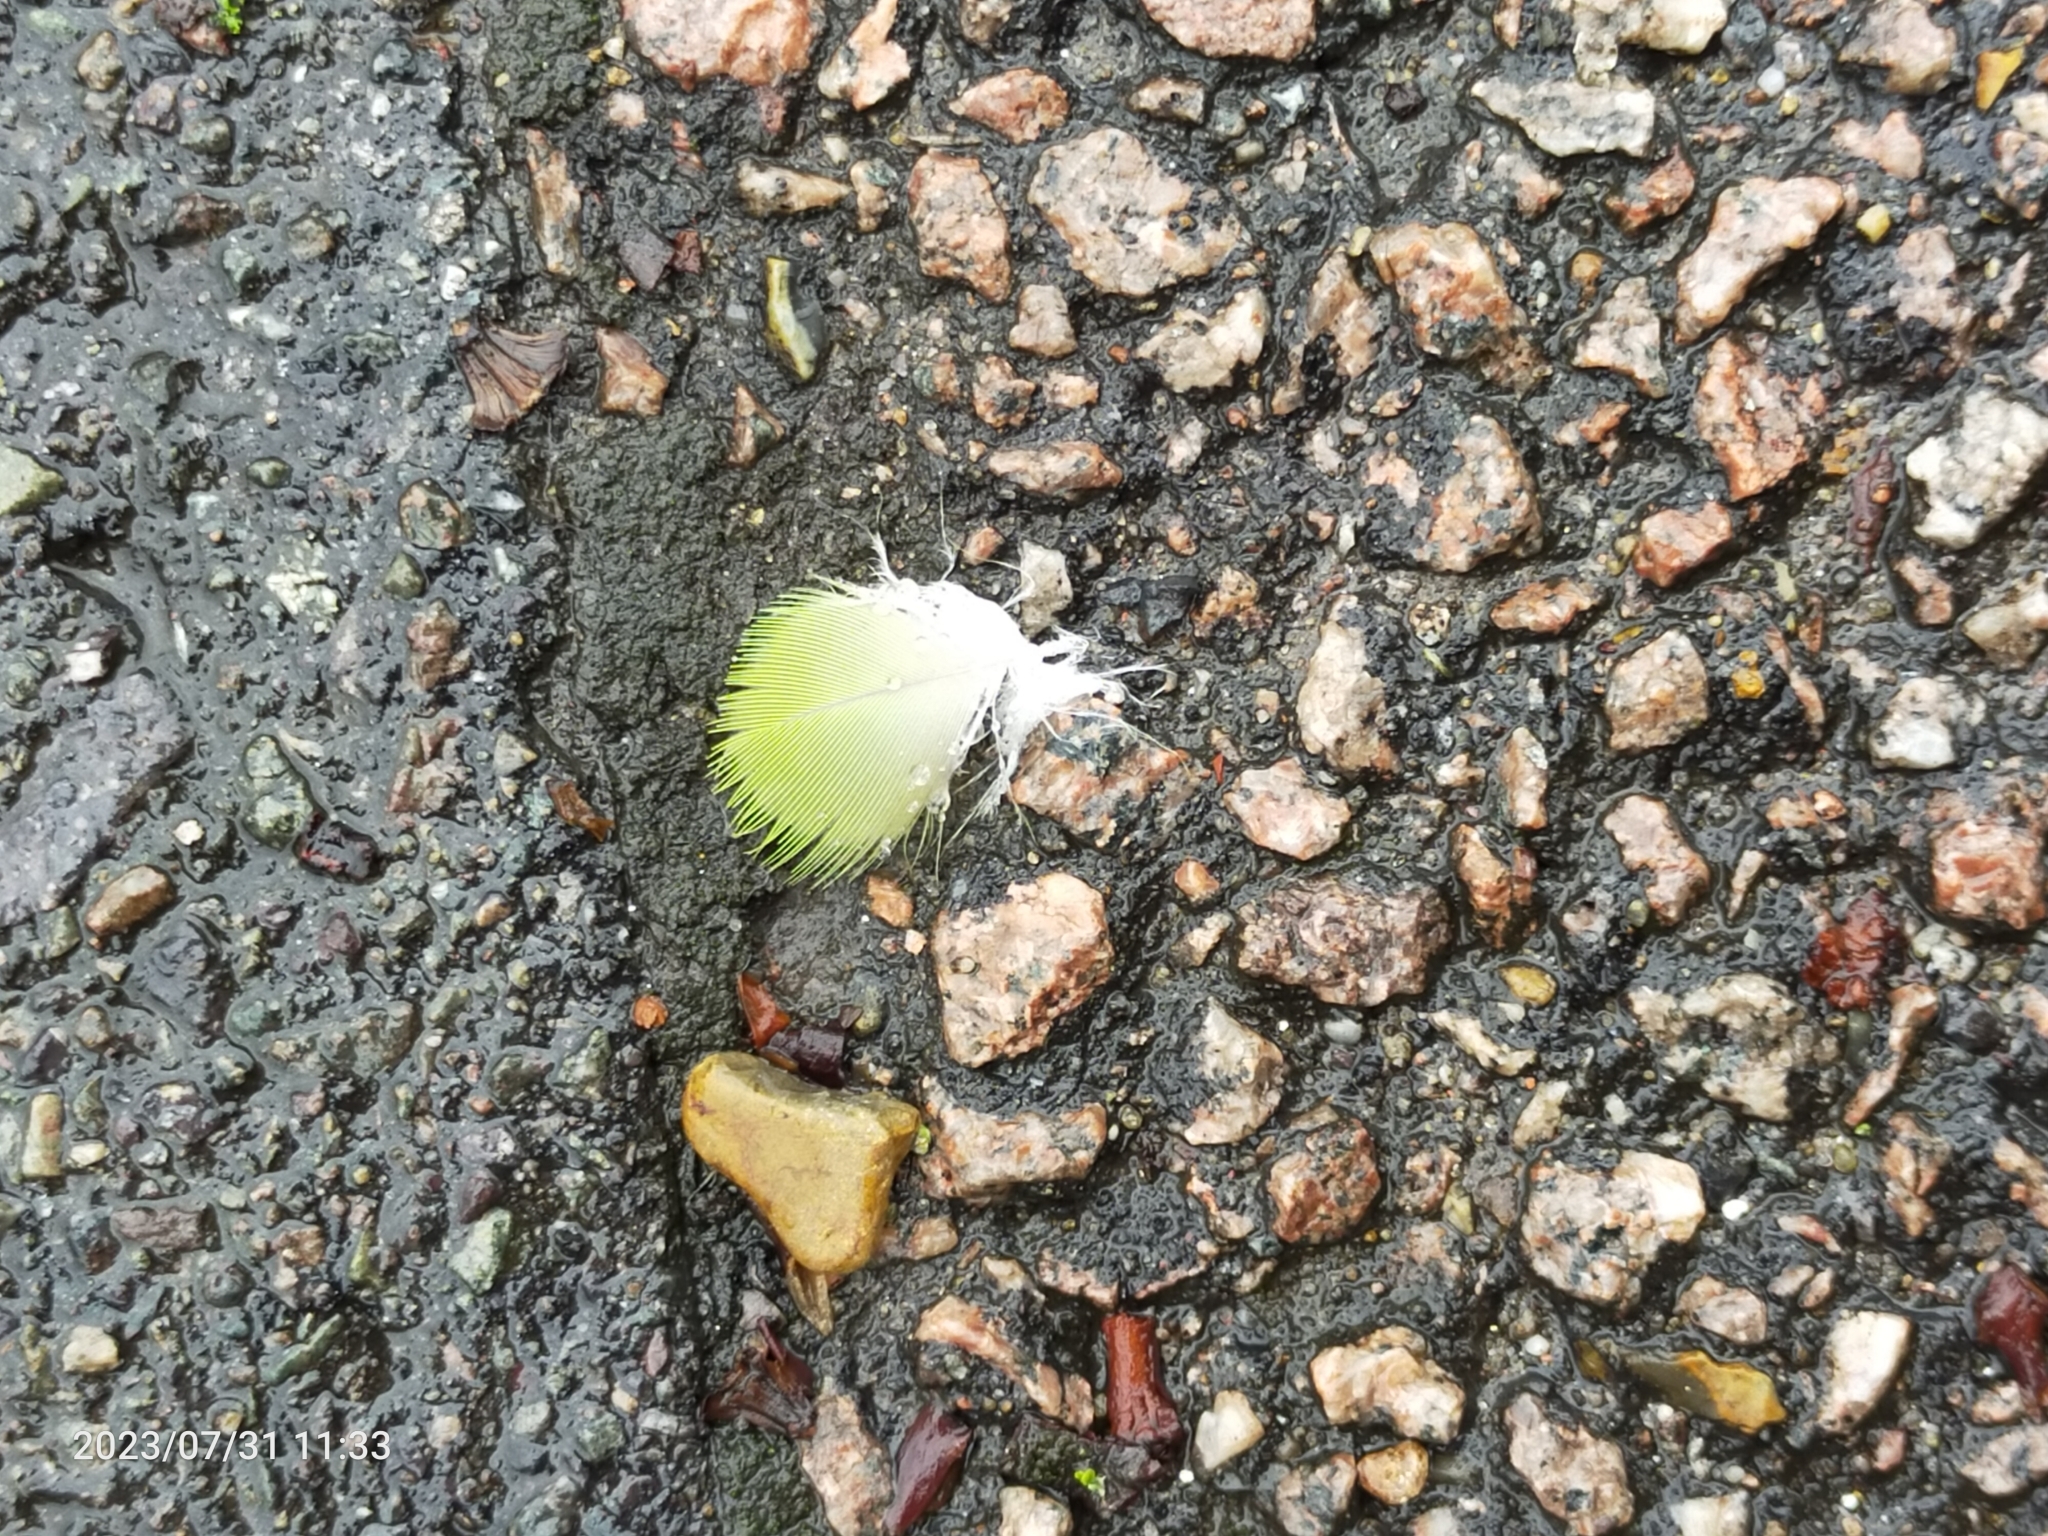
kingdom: Animalia
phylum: Chordata
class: Aves
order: Psittaciformes
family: Psittacidae
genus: Psittacula
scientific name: Psittacula krameri
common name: Rose-ringed parakeet
